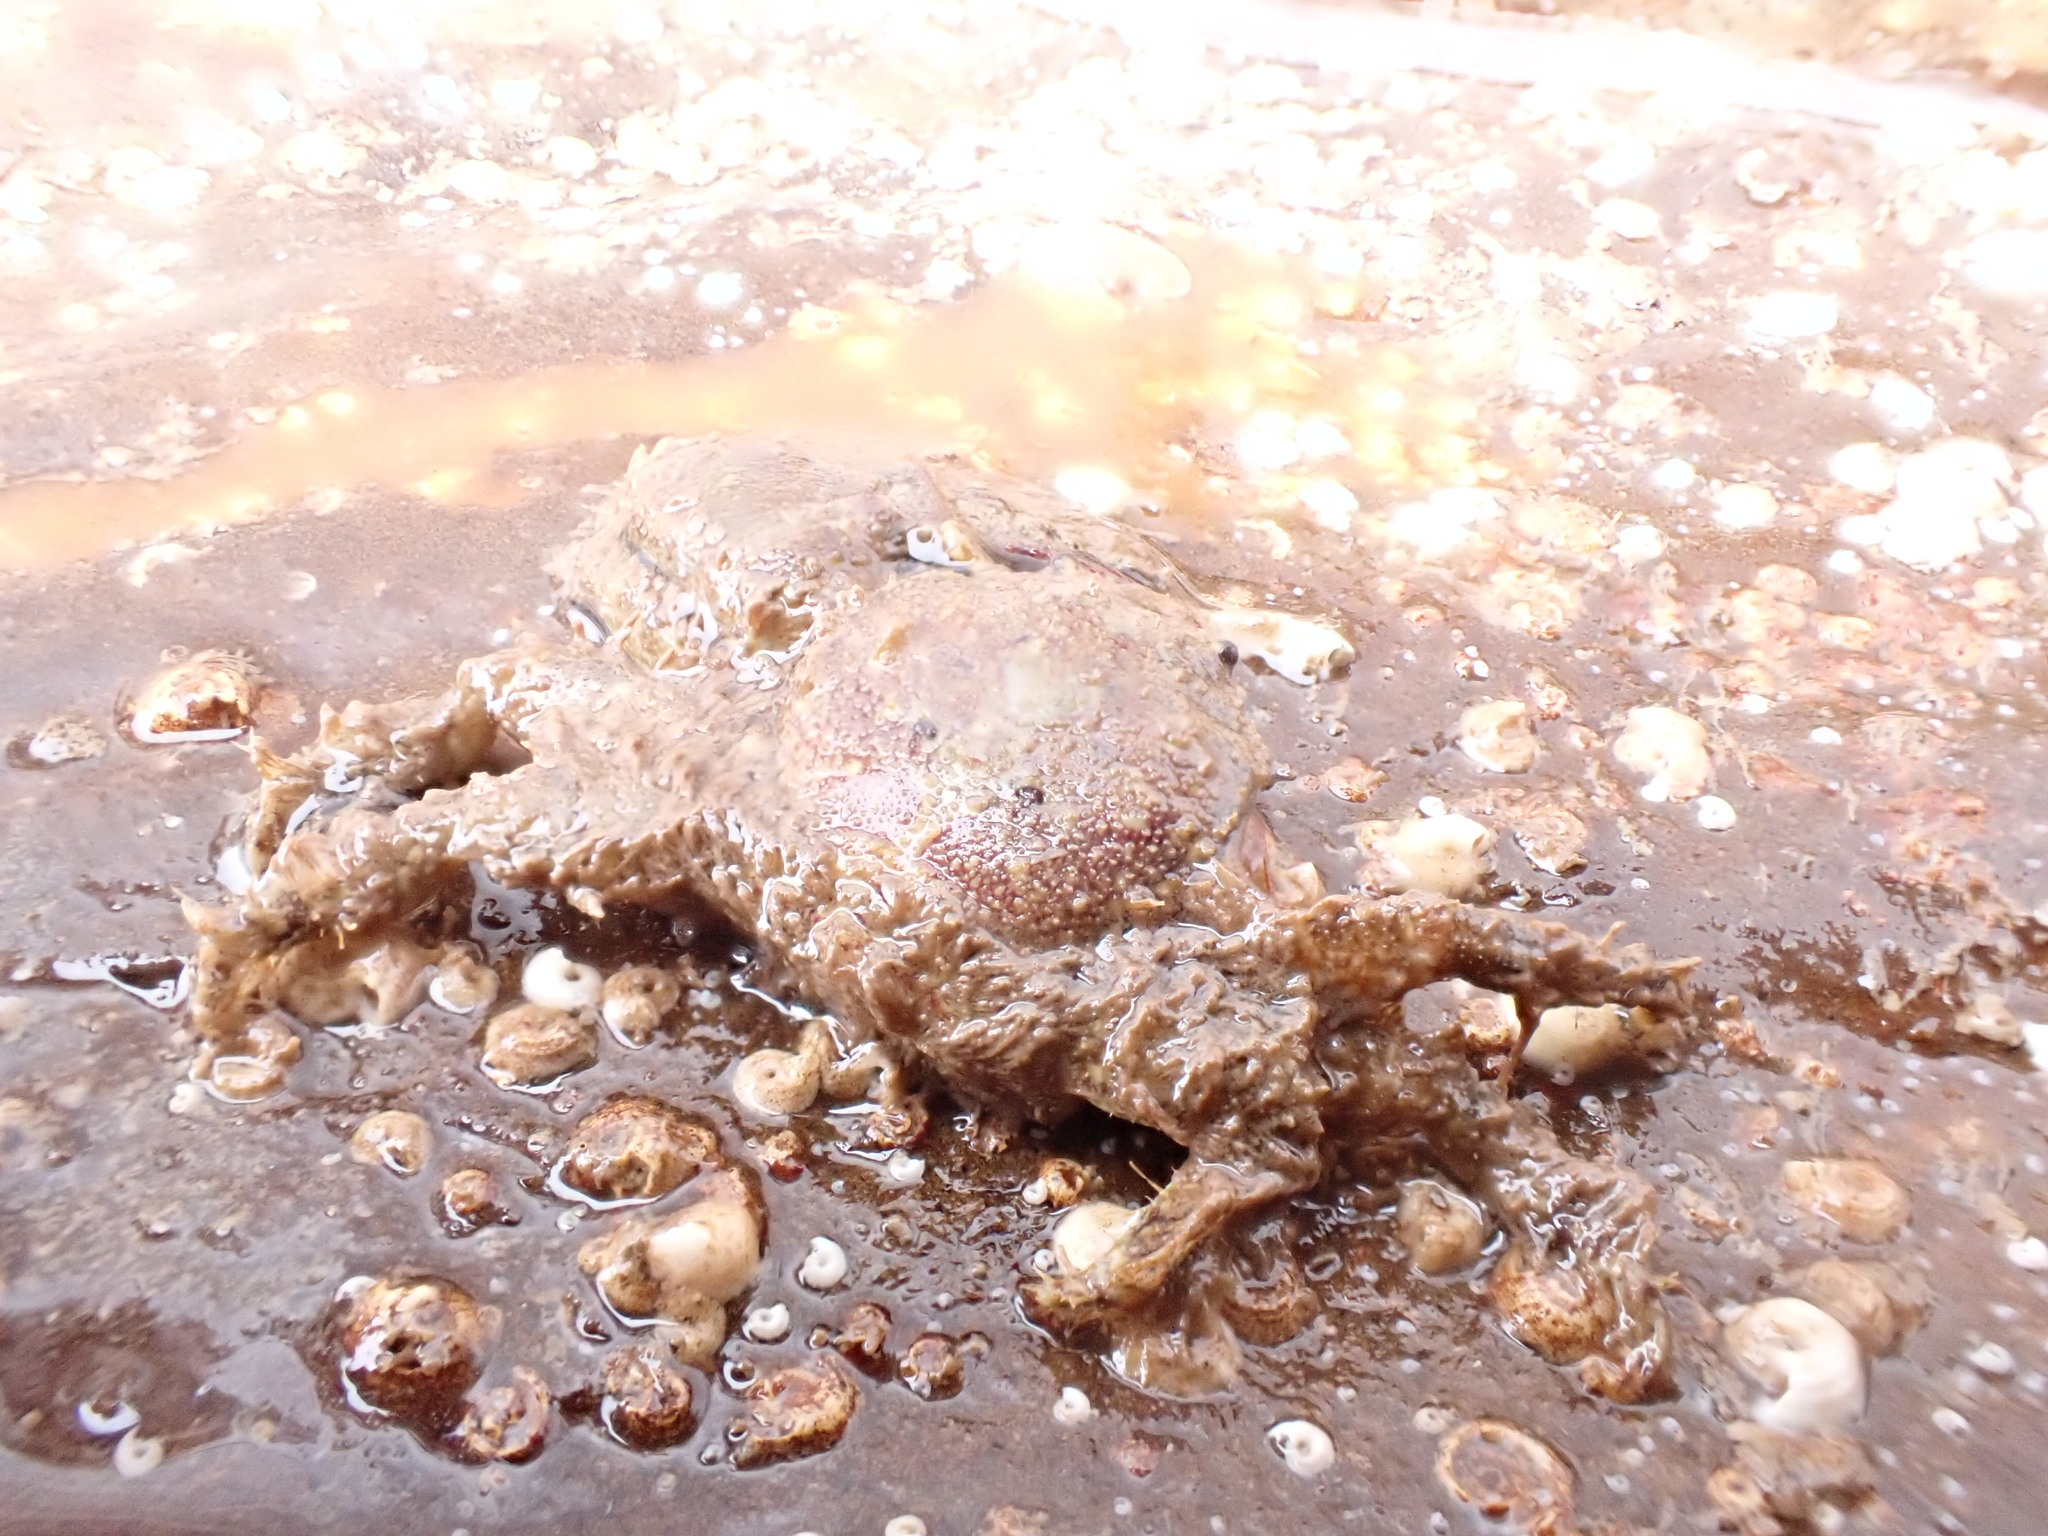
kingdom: Animalia
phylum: Arthropoda
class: Malacostraca
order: Decapoda
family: Porcellanidae
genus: Porcellana
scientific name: Porcellana platycheles
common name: Porcelain crab
